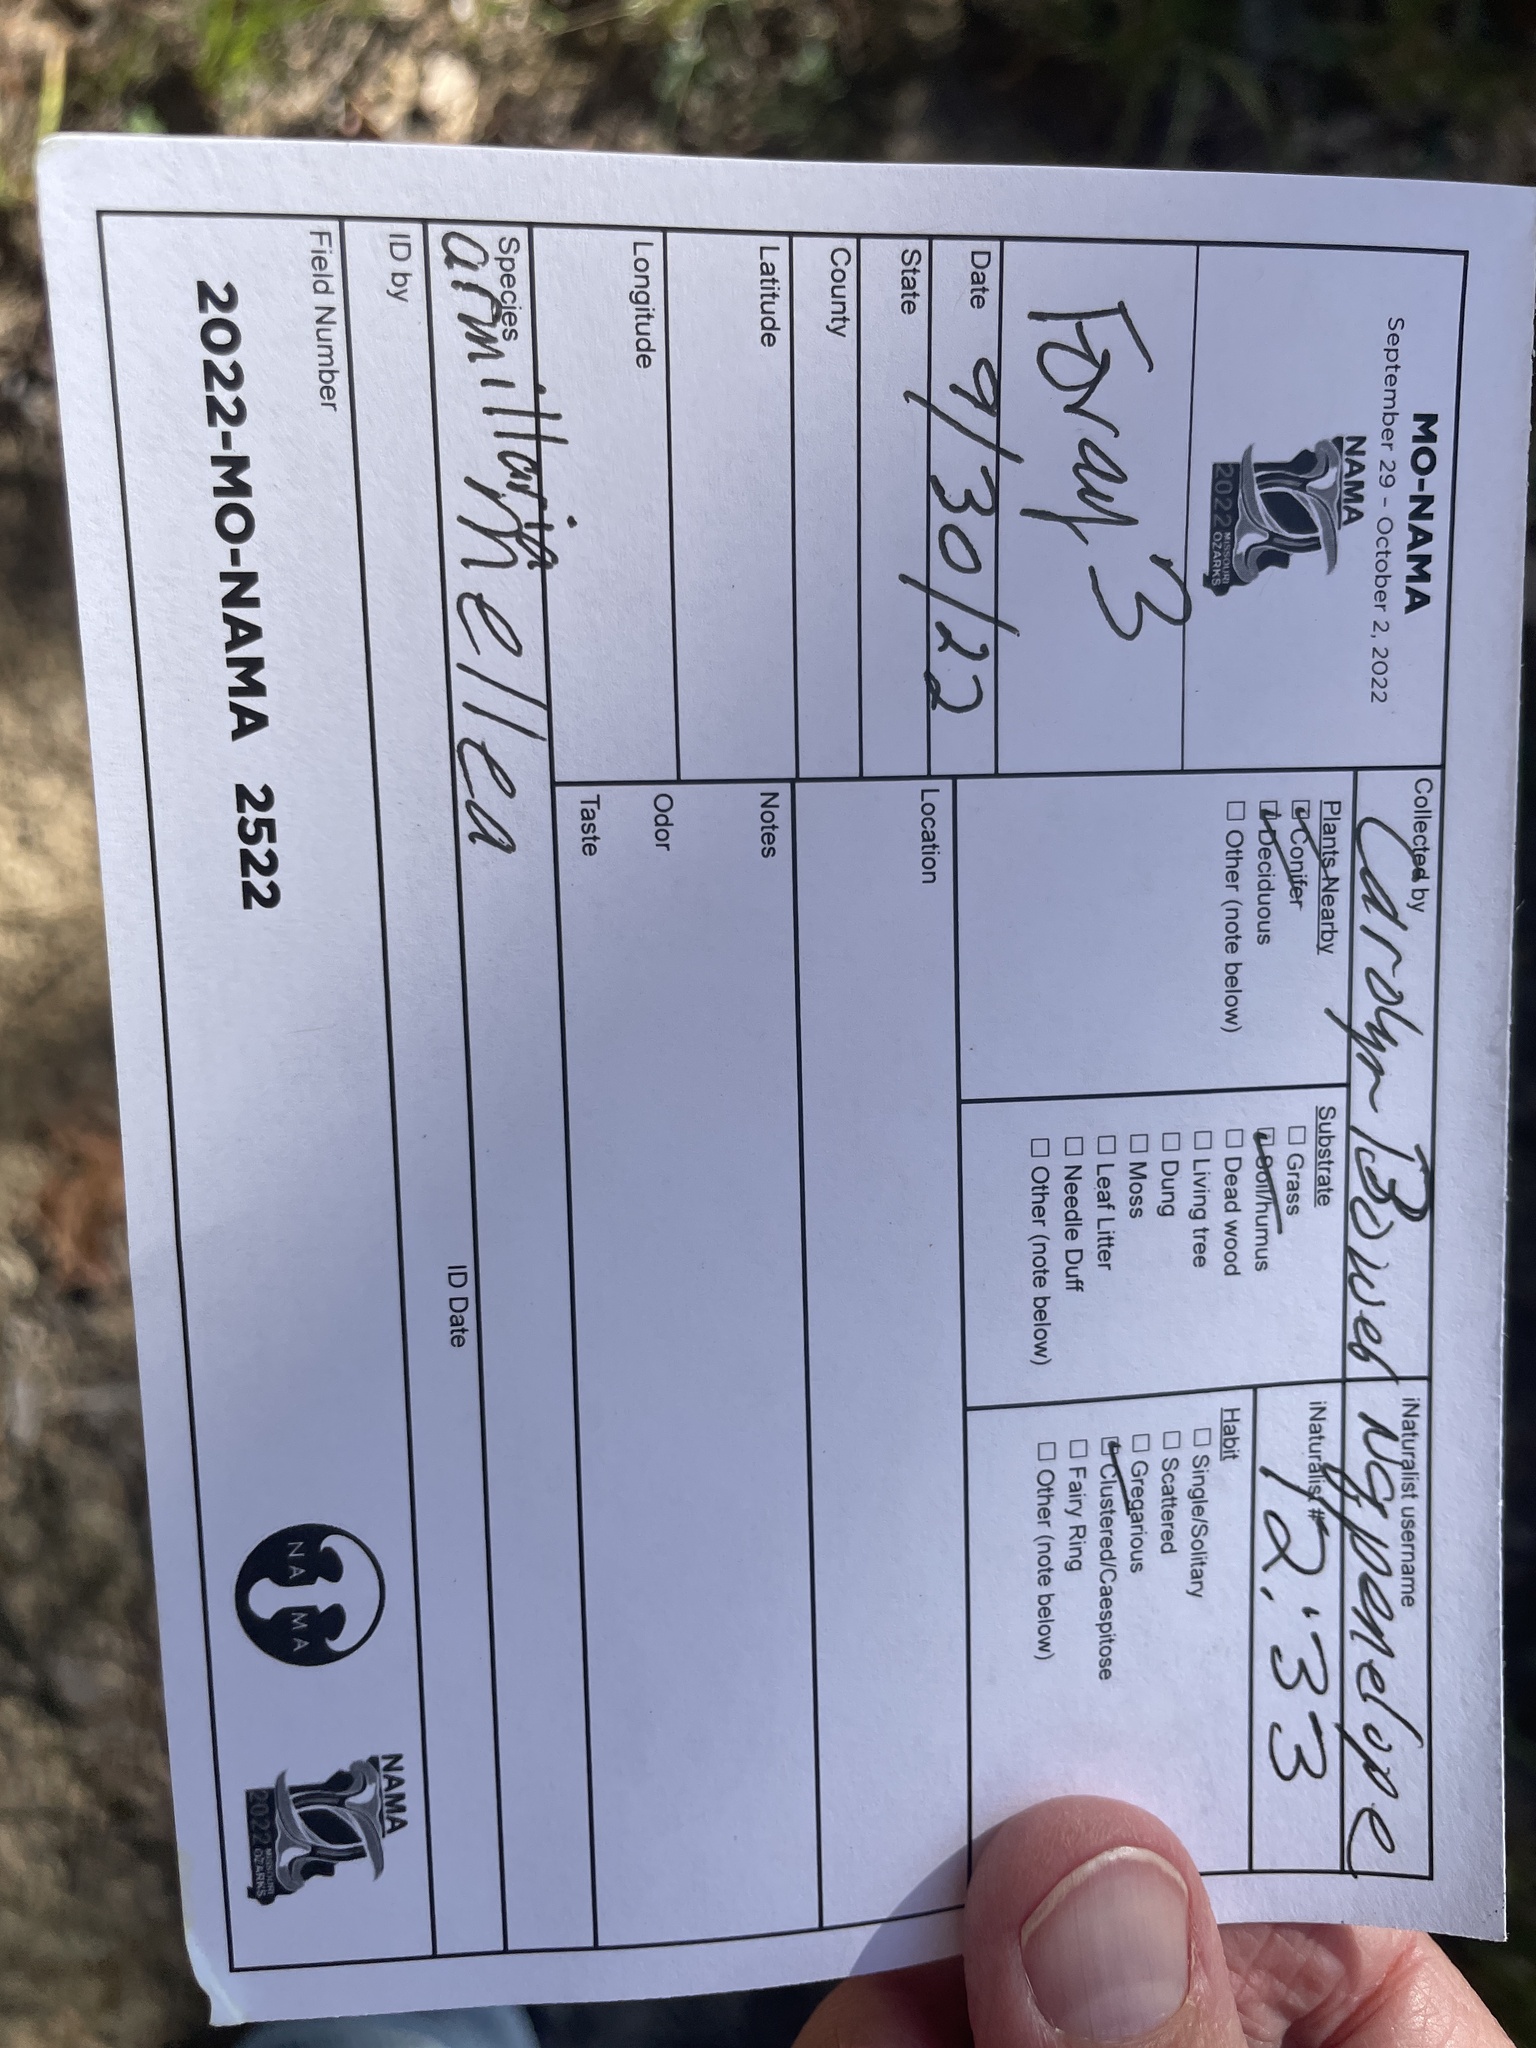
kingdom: Fungi
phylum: Basidiomycota
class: Agaricomycetes
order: Agaricales
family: Physalacriaceae
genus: Armillaria
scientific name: Armillaria mellea
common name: Honey fungus
